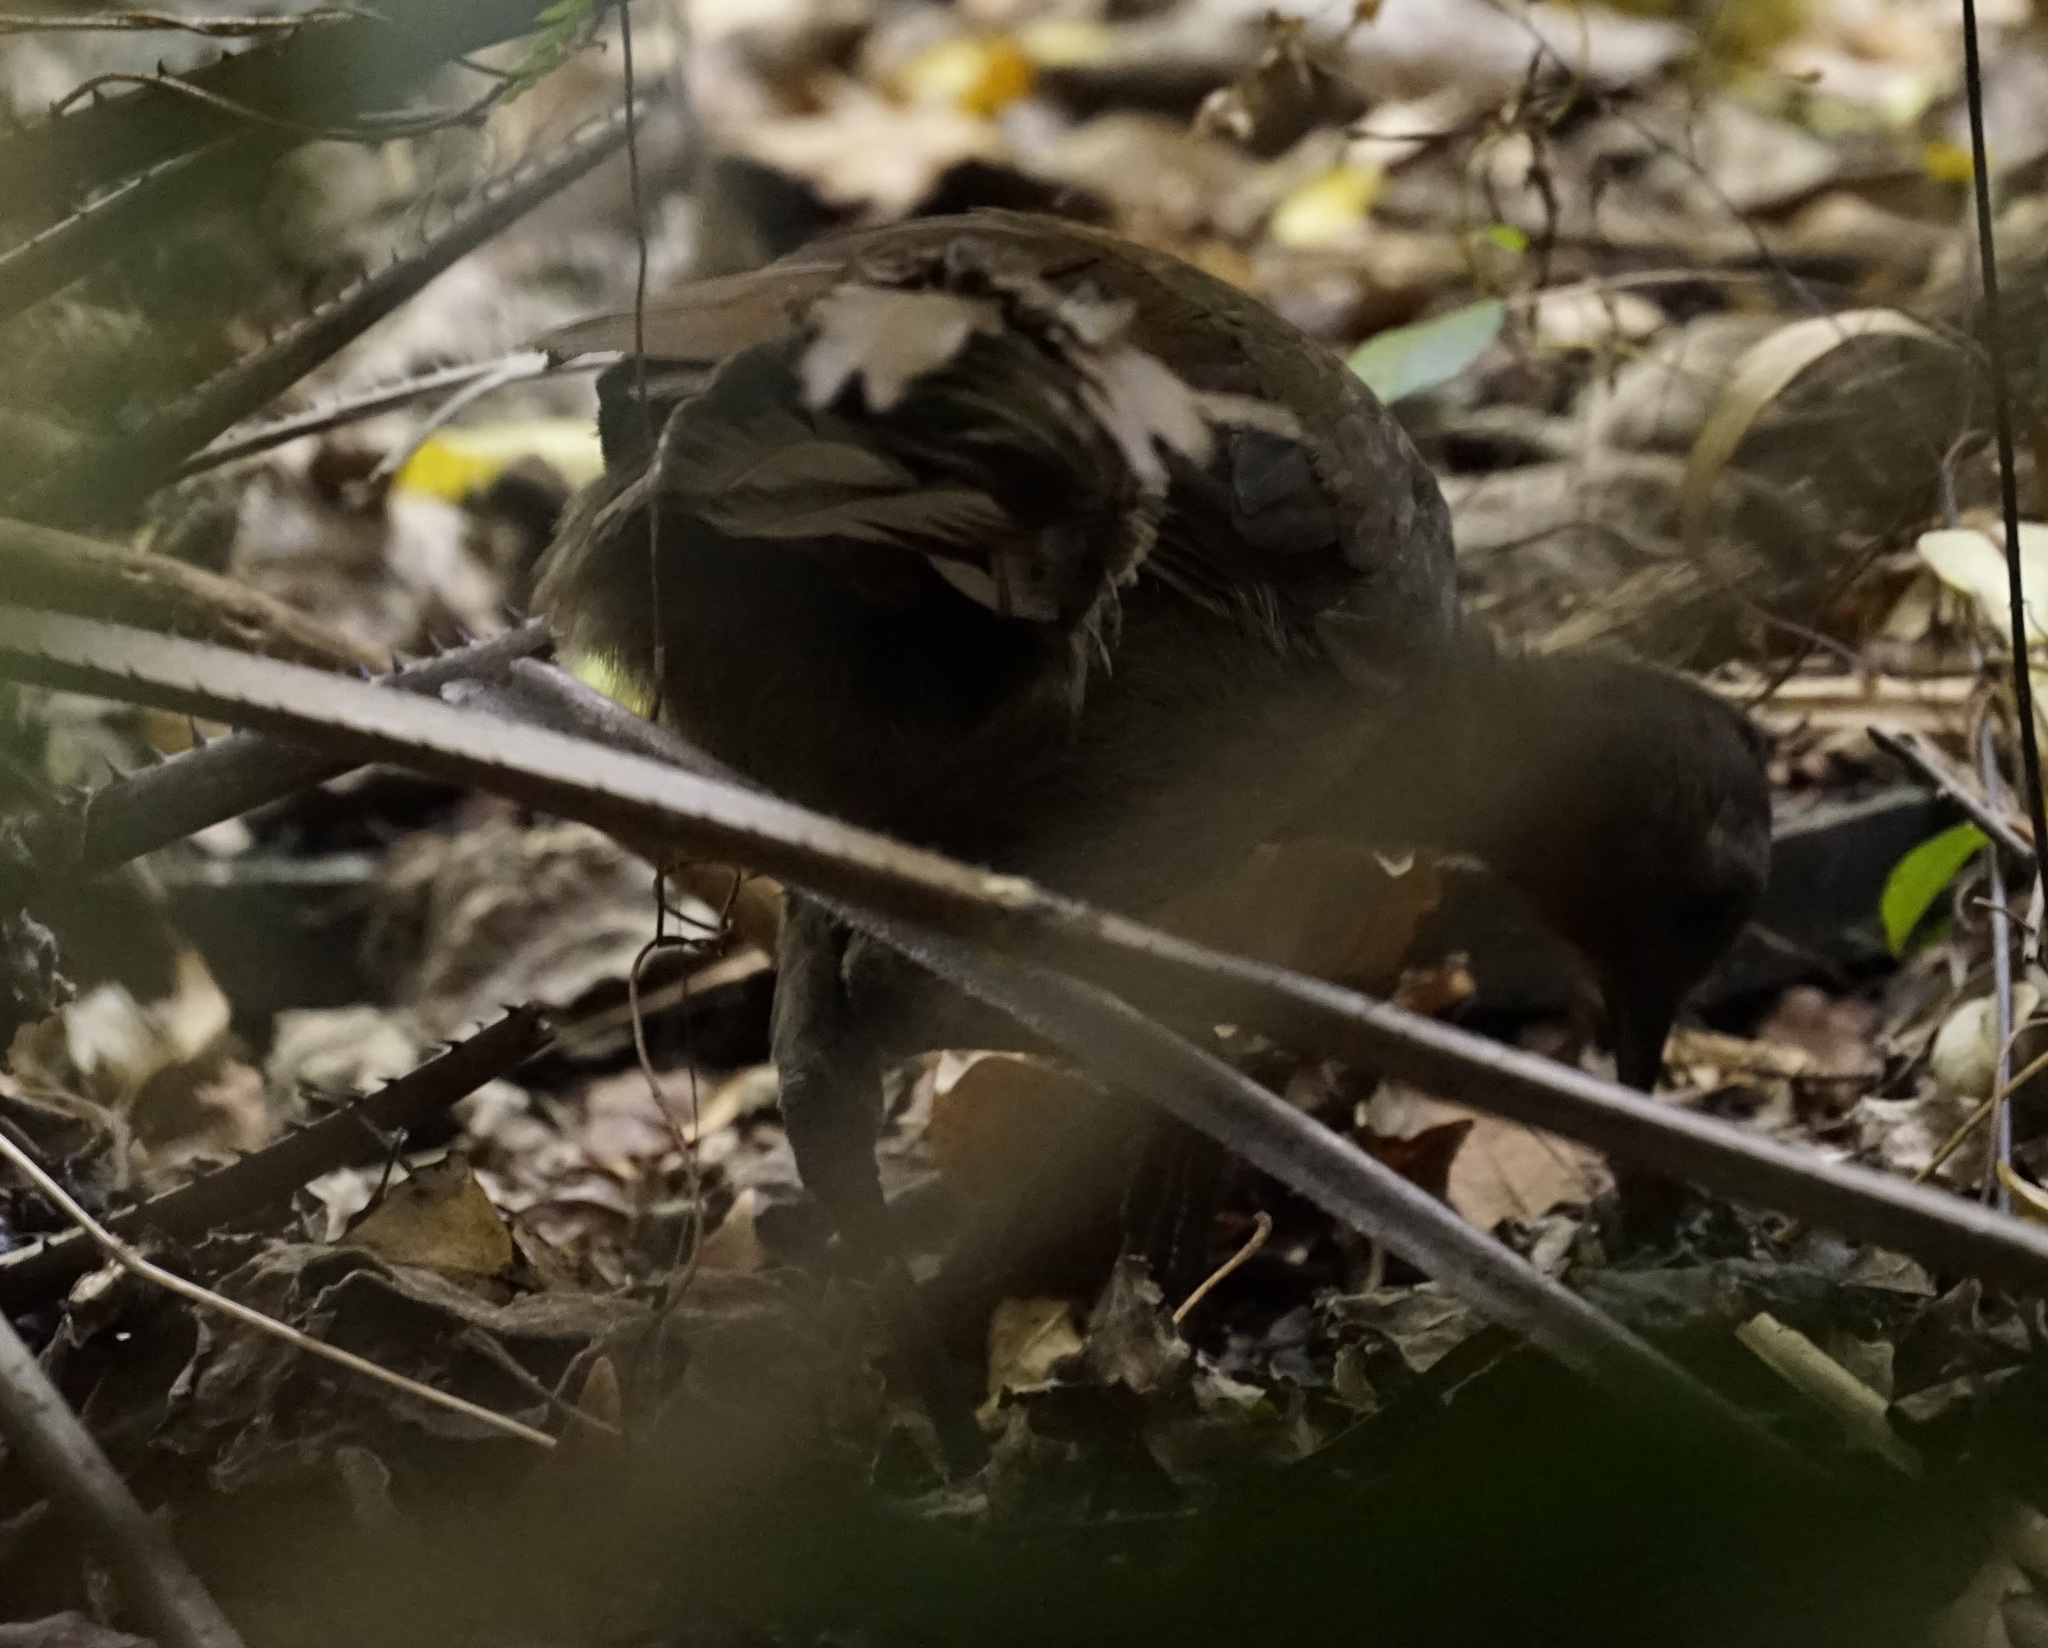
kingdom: Animalia
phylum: Chordata
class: Aves
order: Passeriformes
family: Menuridae
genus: Menura
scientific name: Menura novaehollandiae
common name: Superb lyrebird
